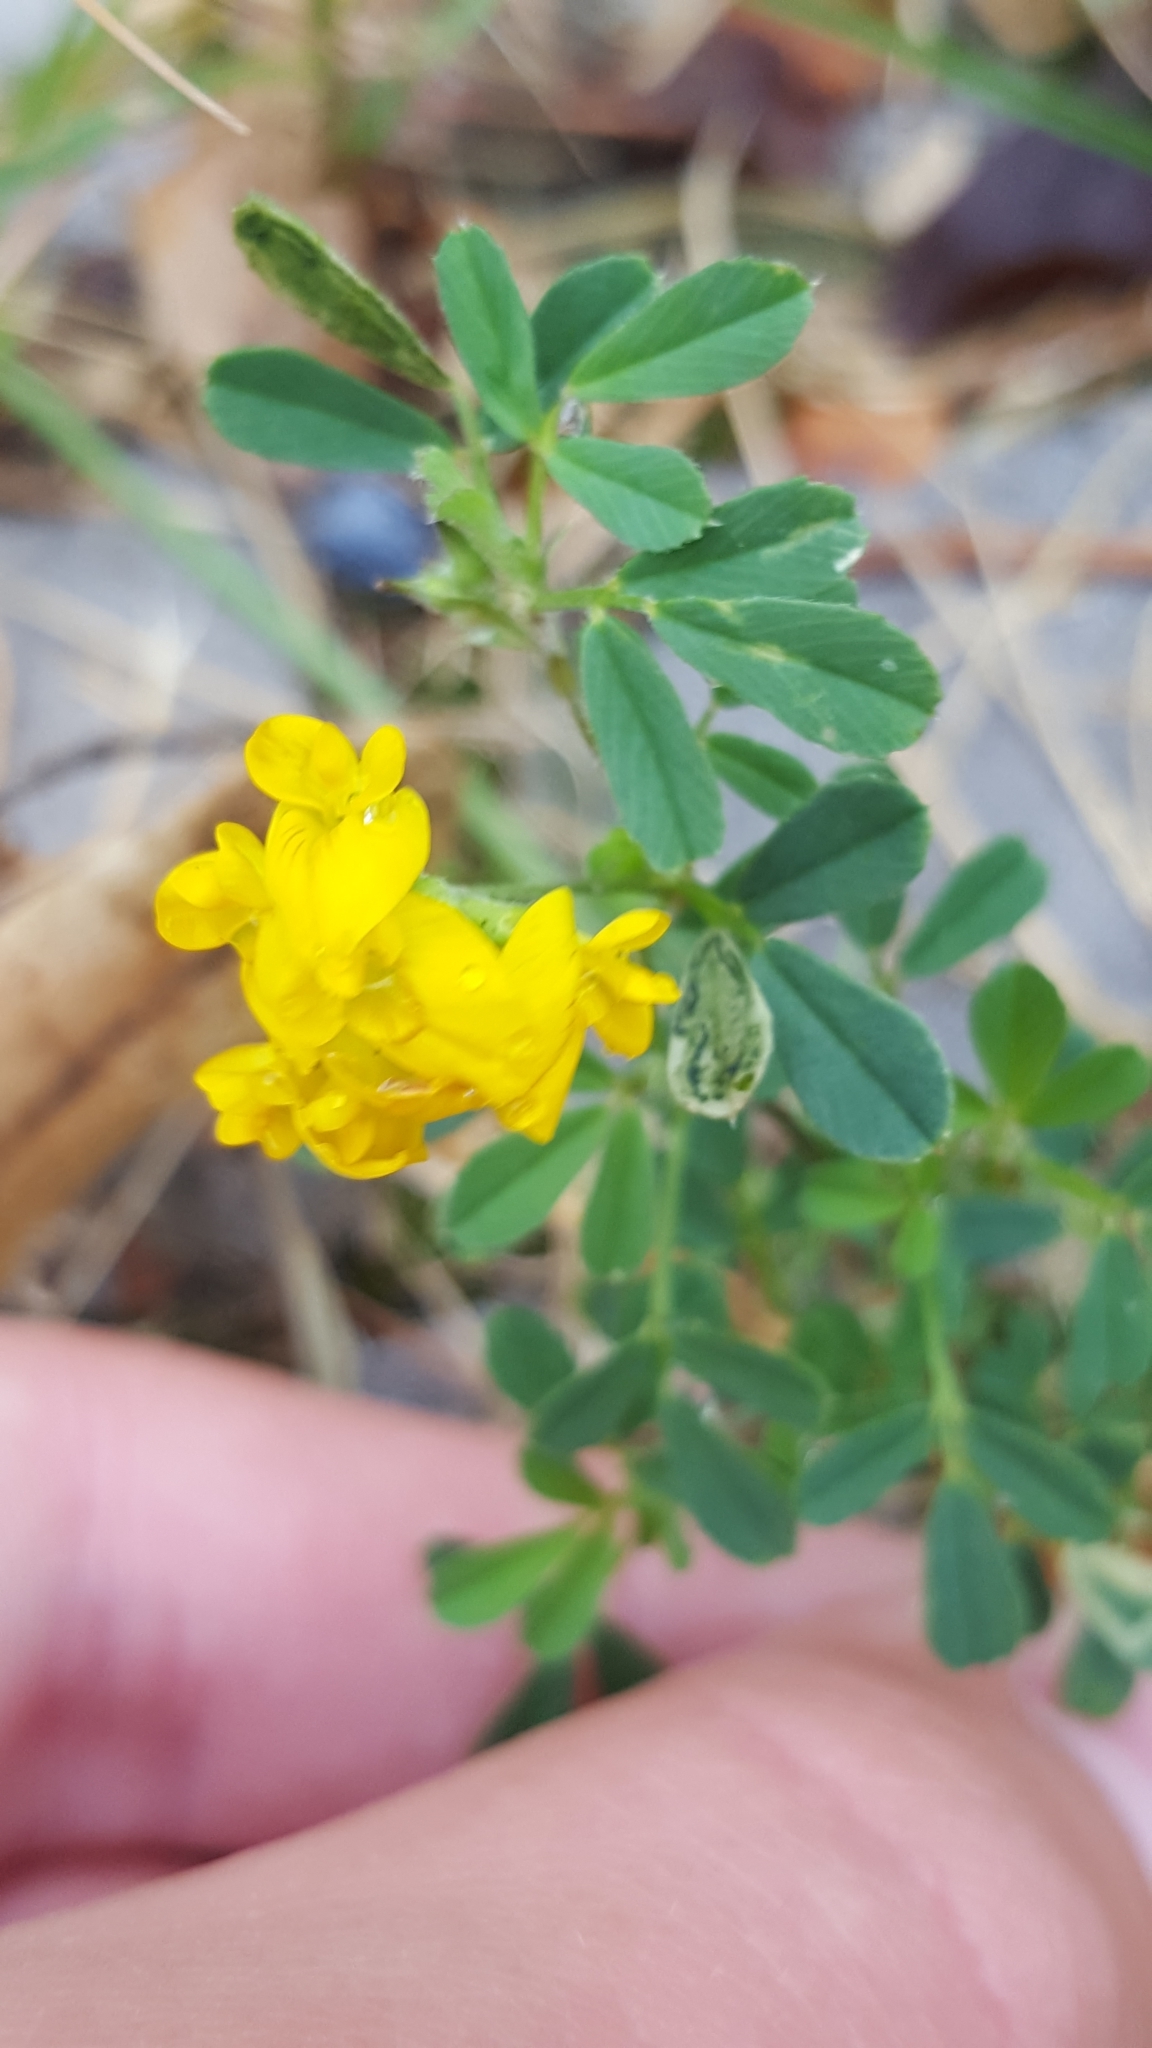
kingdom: Plantae
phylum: Tracheophyta
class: Magnoliopsida
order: Fabales
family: Fabaceae
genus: Medicago
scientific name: Medicago falcata
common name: Sickle medick
